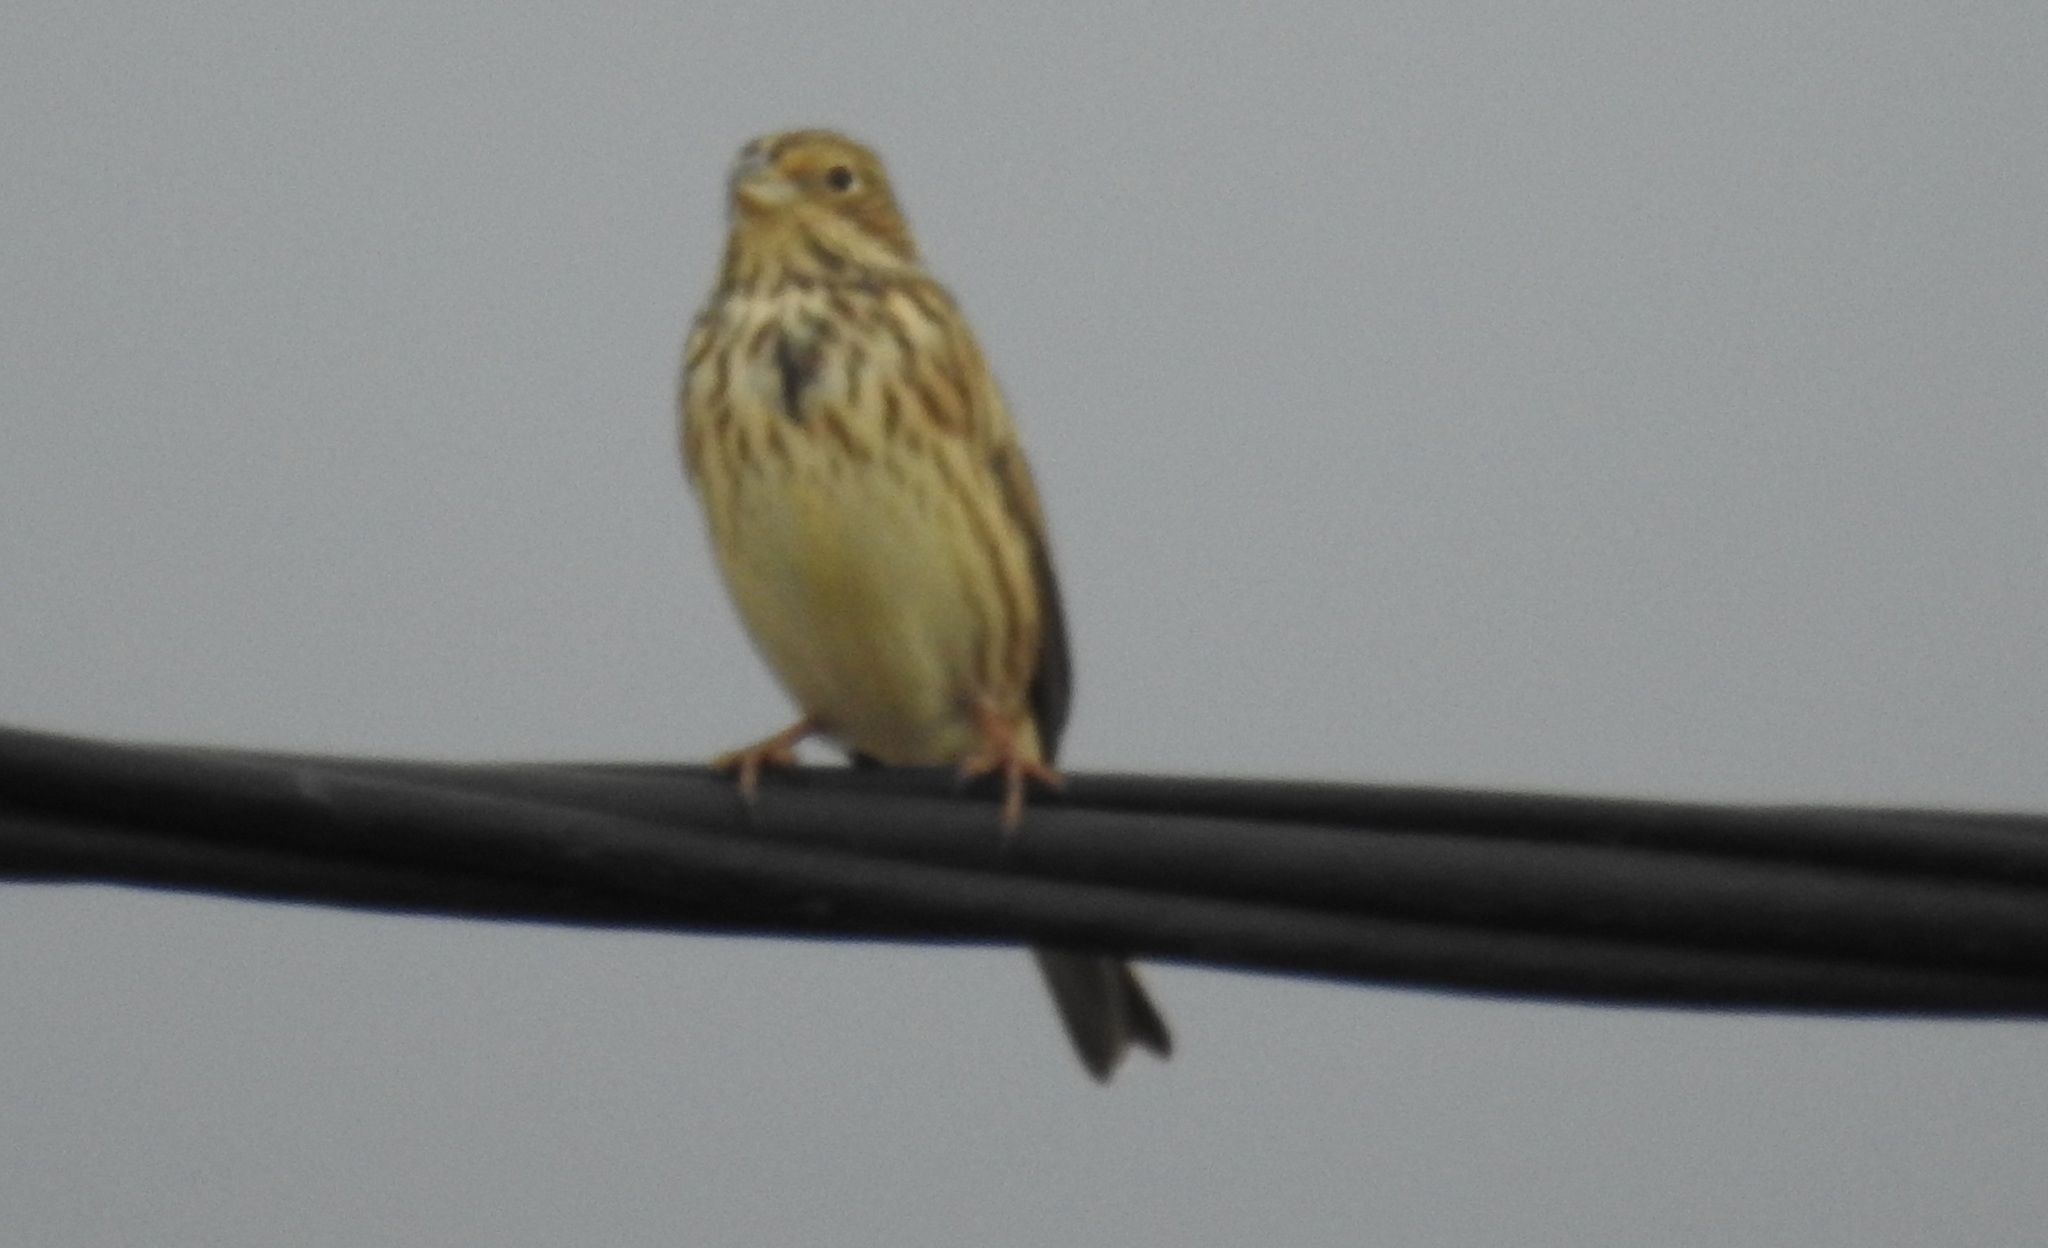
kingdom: Animalia
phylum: Chordata
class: Aves
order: Passeriformes
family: Emberizidae
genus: Emberiza
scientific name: Emberiza calandra
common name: Corn bunting
